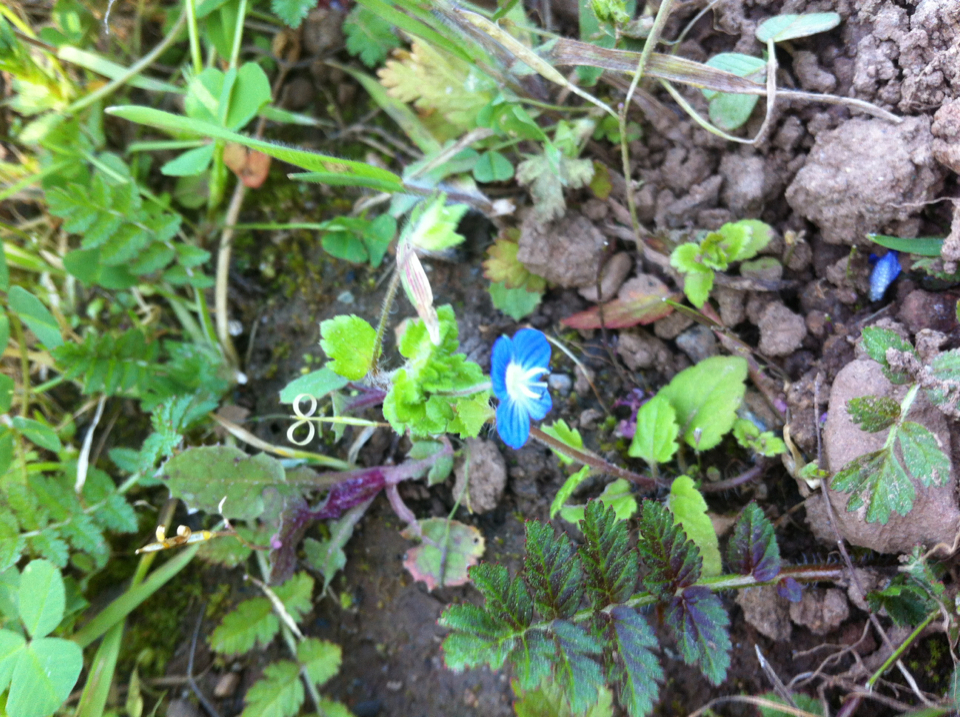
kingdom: Plantae
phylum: Tracheophyta
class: Magnoliopsida
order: Lamiales
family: Plantaginaceae
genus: Veronica
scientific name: Veronica persica
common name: Common field-speedwell
